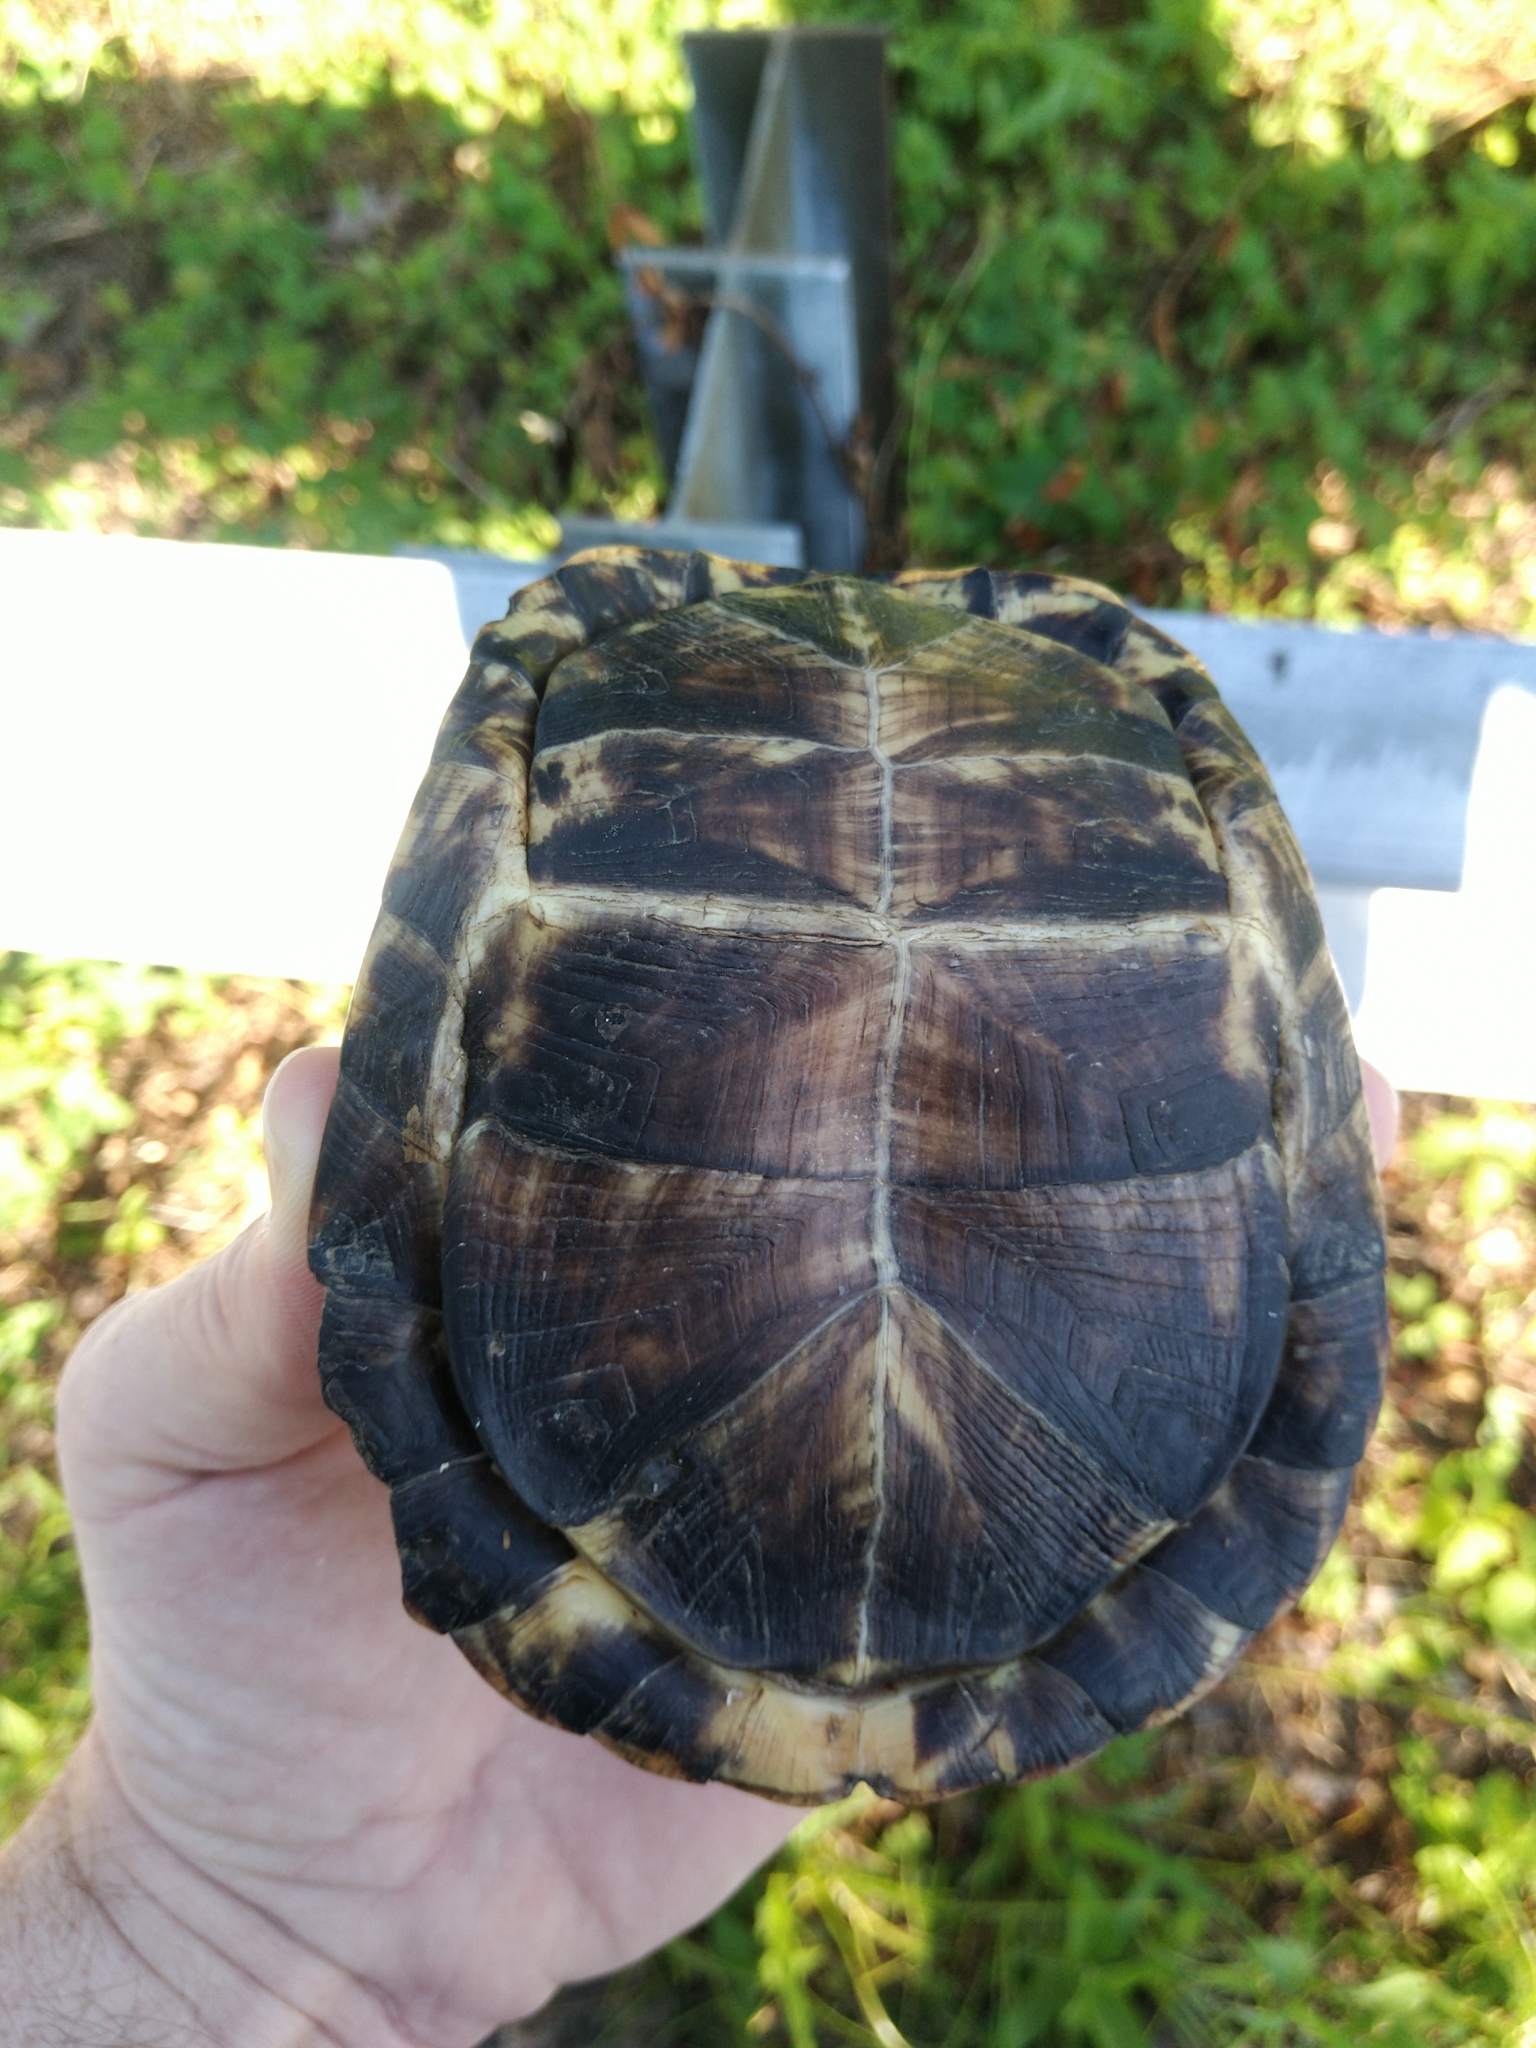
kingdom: Animalia
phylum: Chordata
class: Testudines
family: Emydidae
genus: Terrapene
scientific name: Terrapene carolina
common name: Common box turtle
